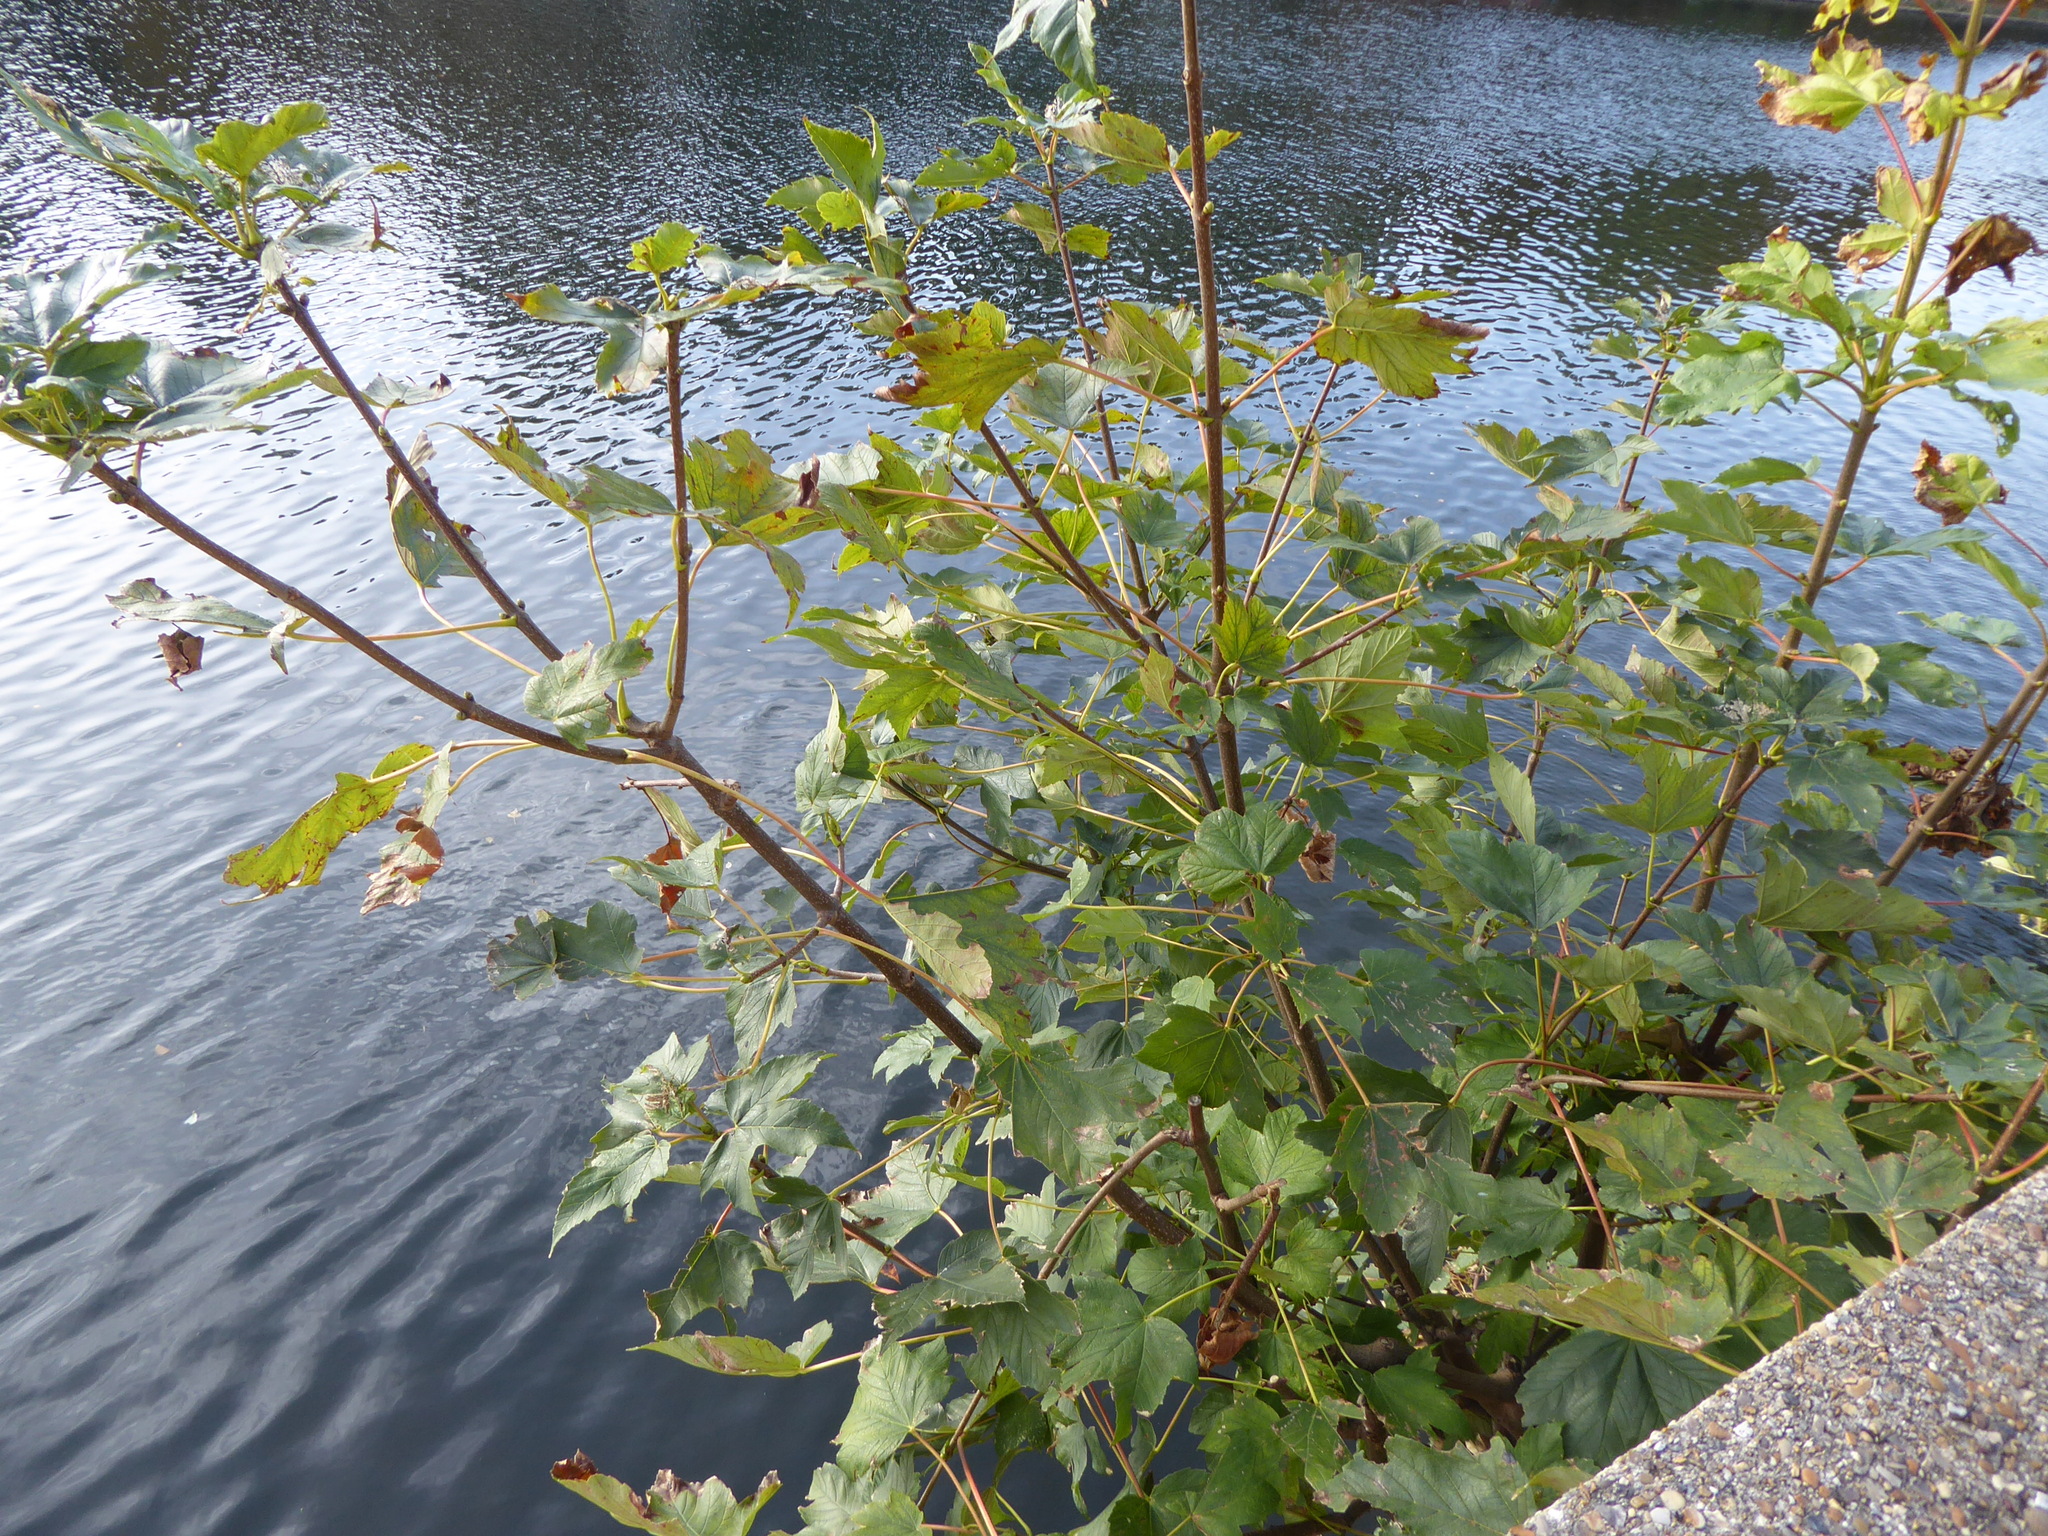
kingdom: Plantae
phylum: Tracheophyta
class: Magnoliopsida
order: Sapindales
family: Sapindaceae
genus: Acer
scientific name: Acer pseudoplatanus
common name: Sycamore
